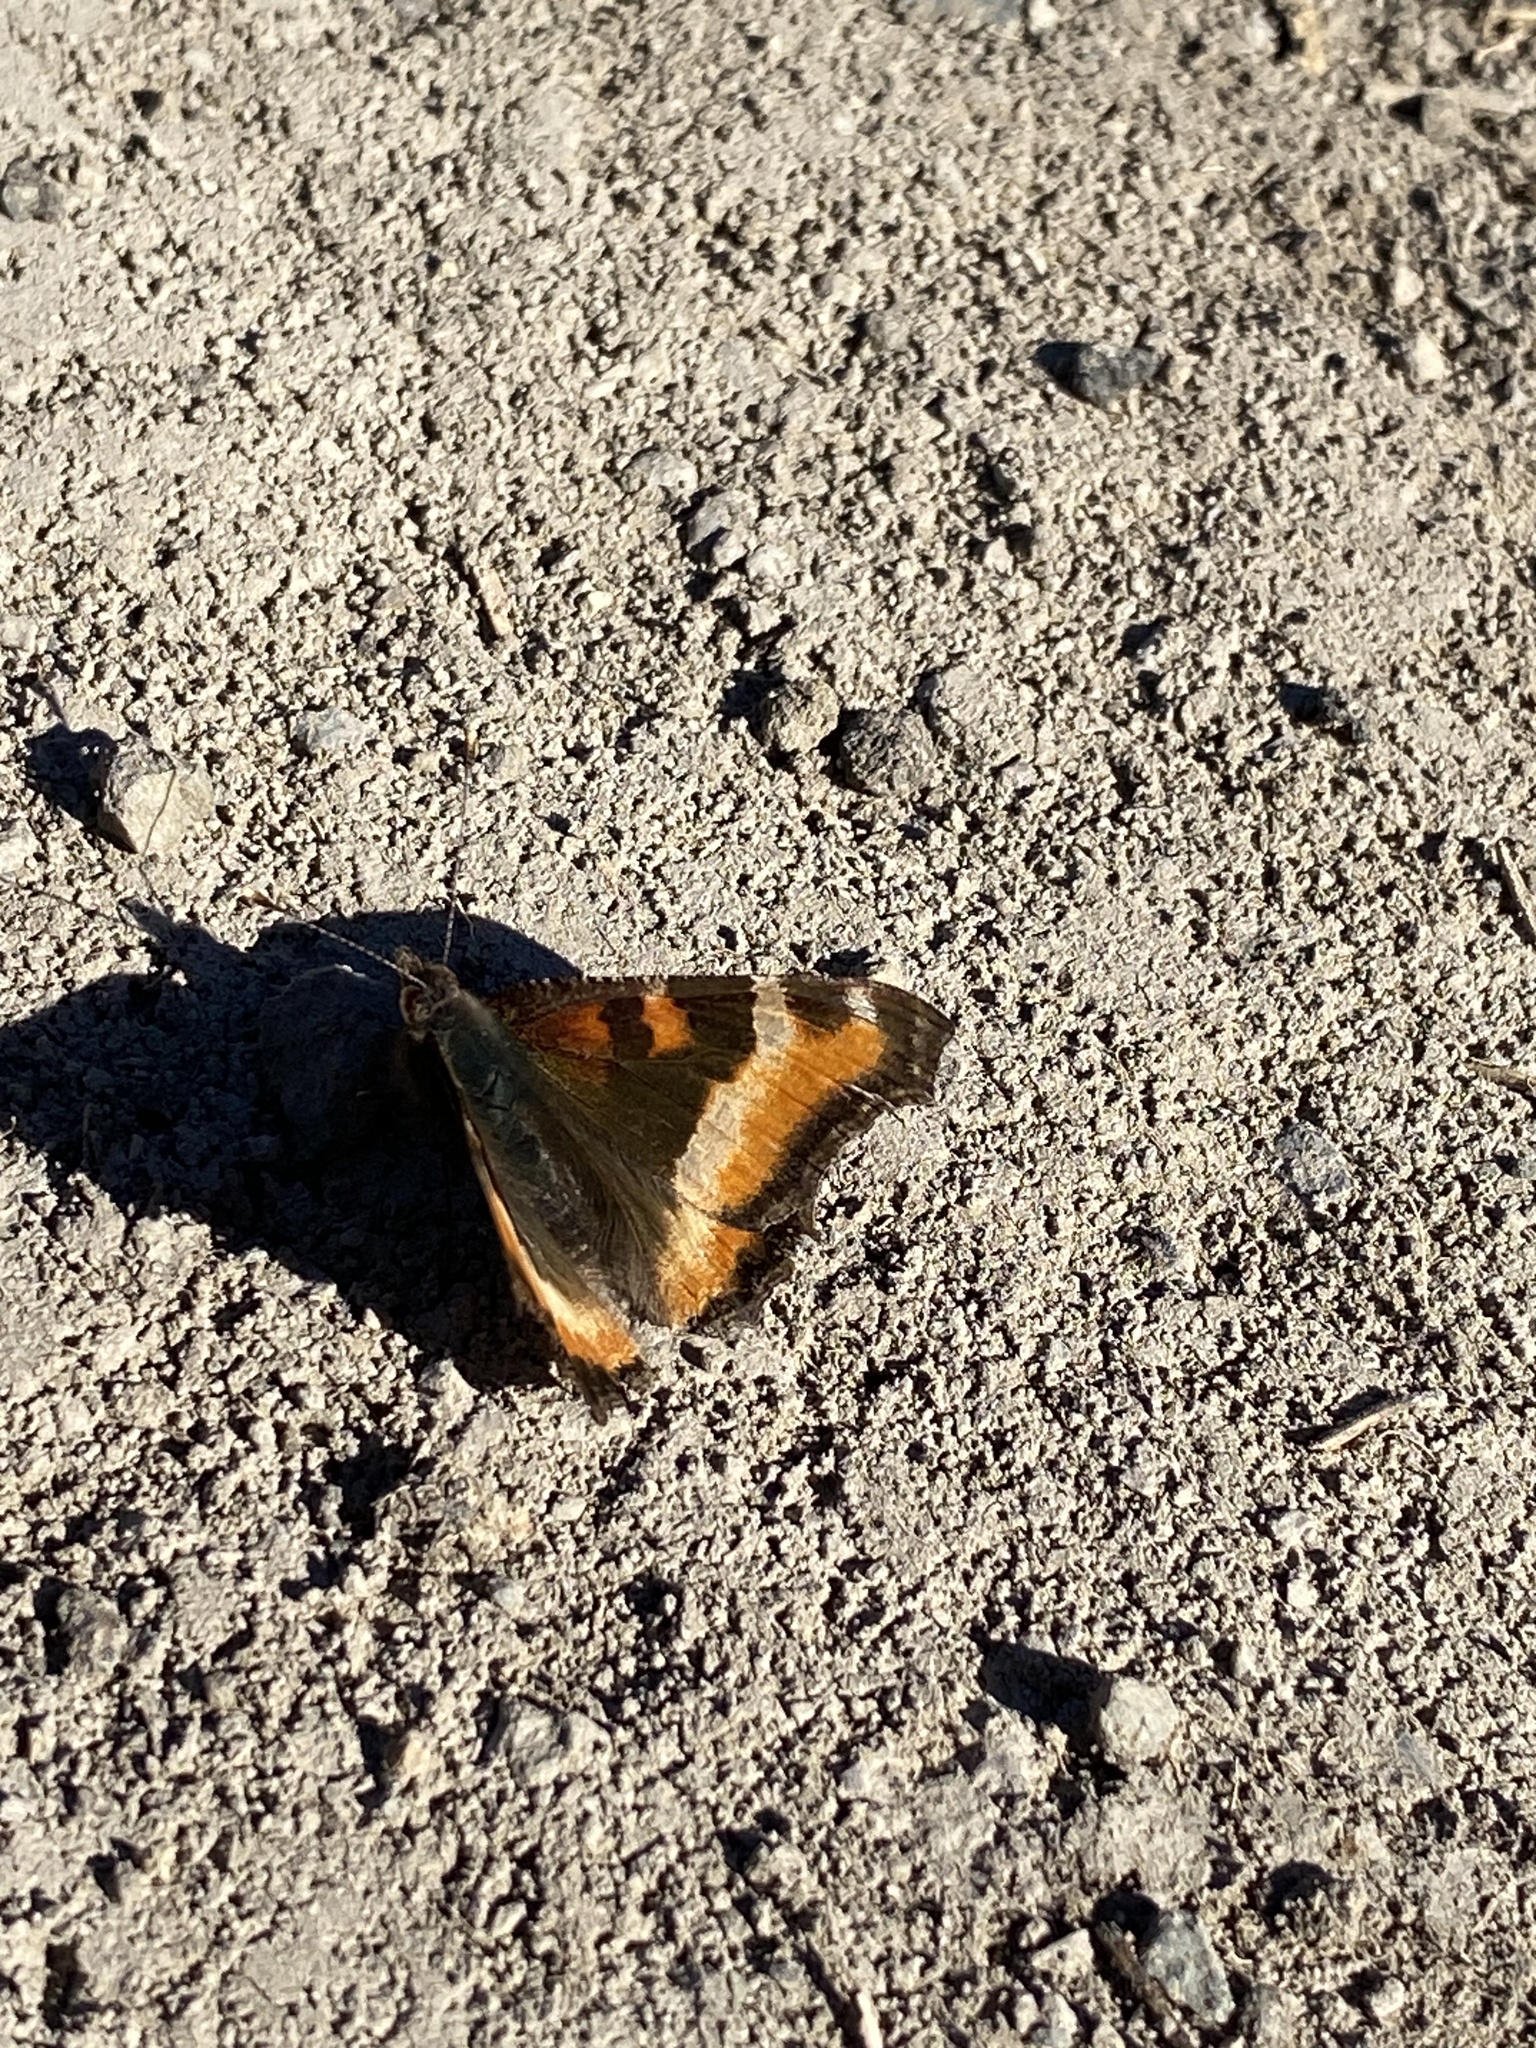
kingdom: Animalia
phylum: Arthropoda
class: Insecta
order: Lepidoptera
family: Nymphalidae
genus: Aglais
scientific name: Aglais milberti
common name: Milbert's tortoiseshell
